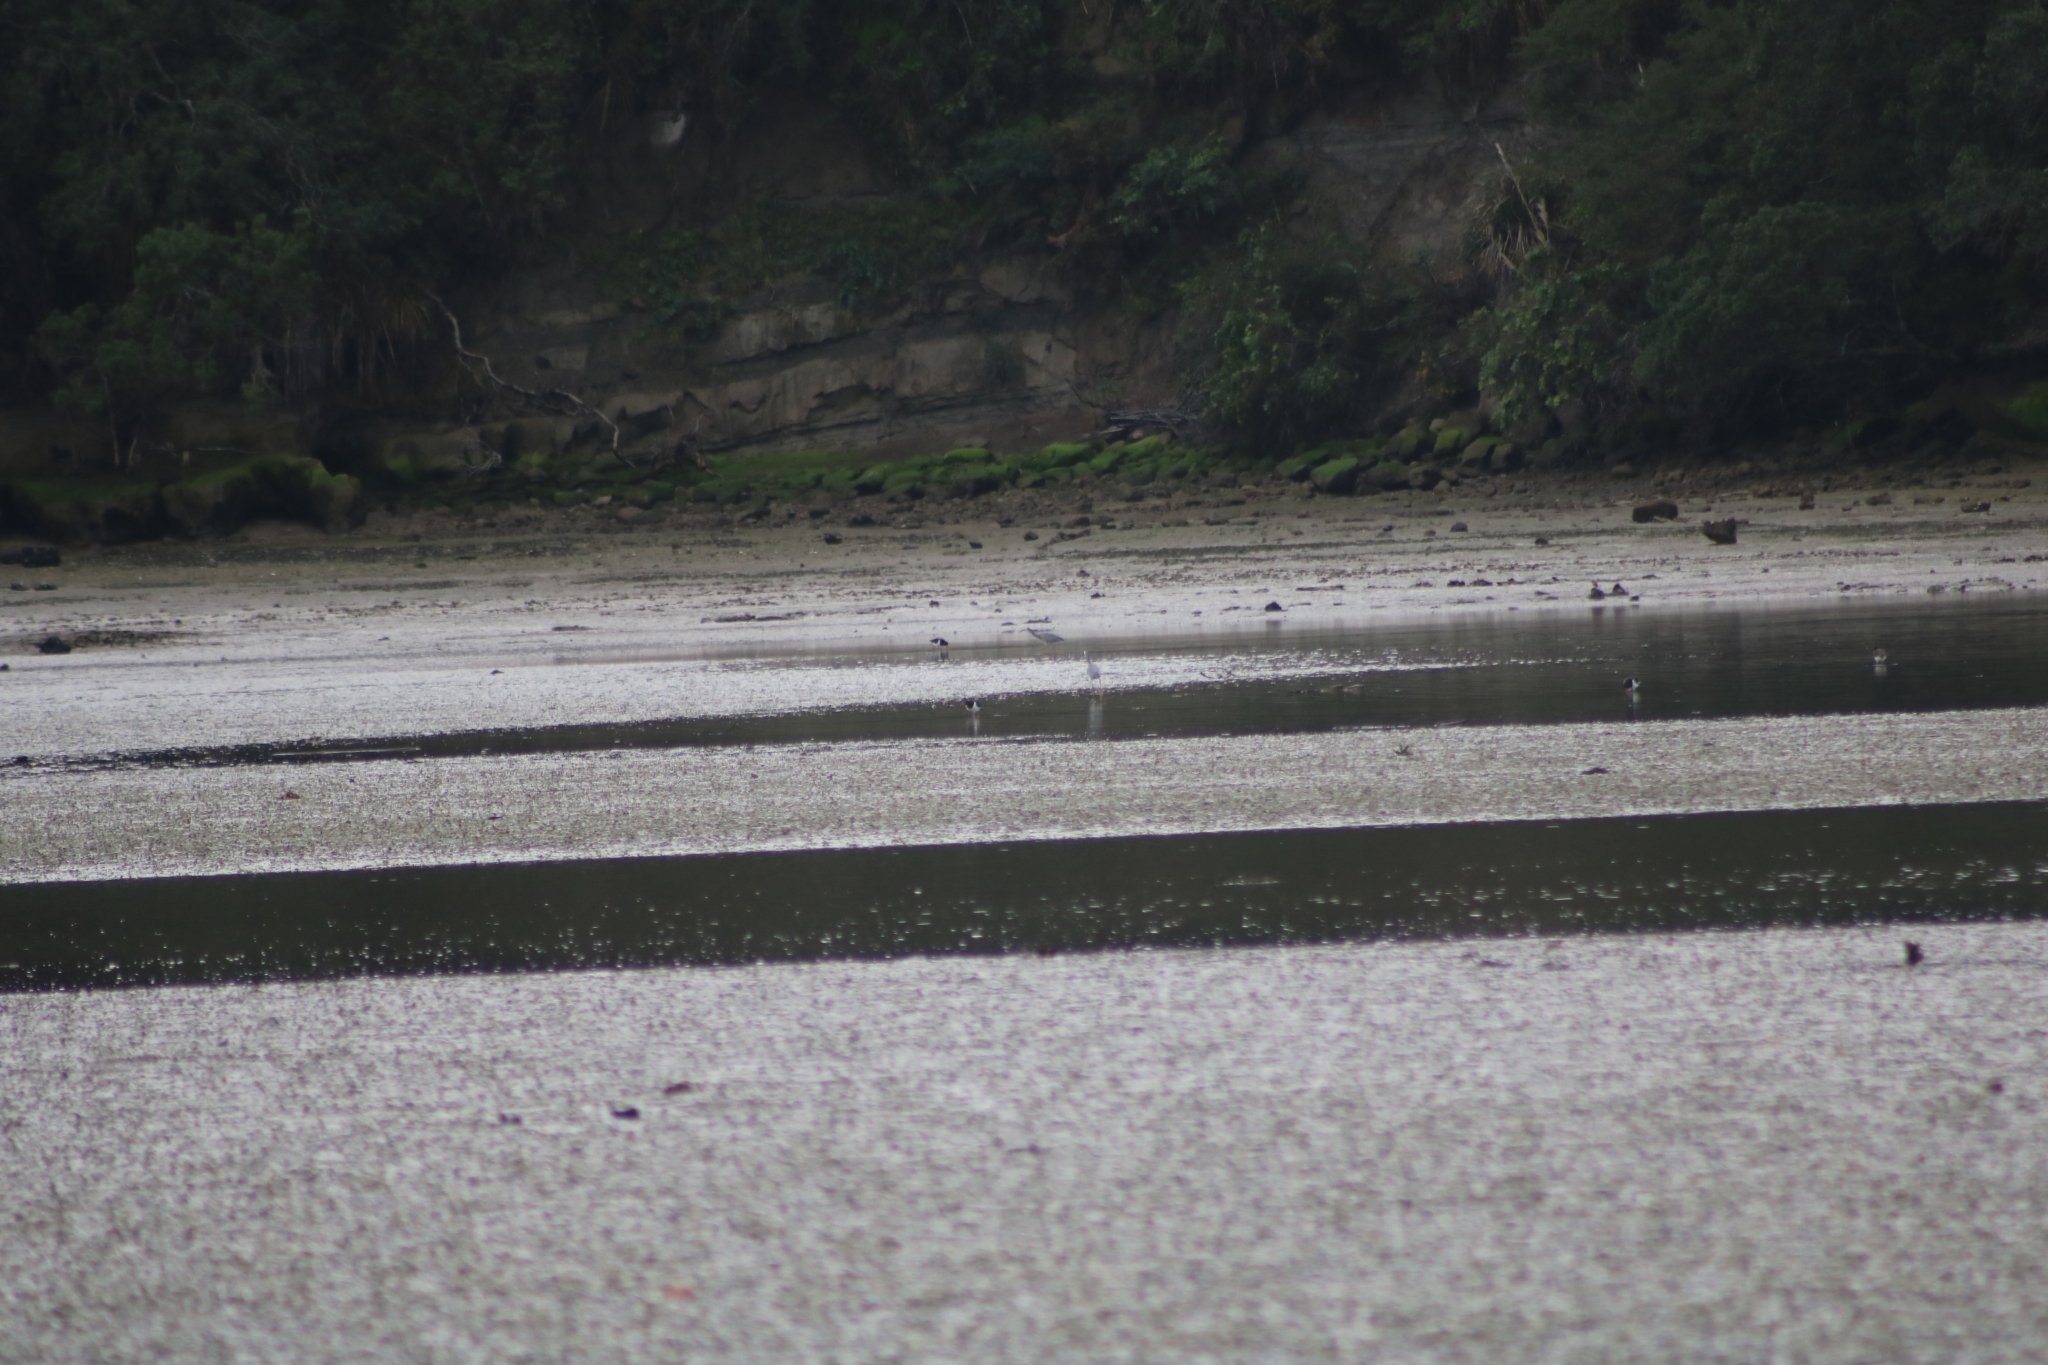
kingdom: Animalia
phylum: Chordata
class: Aves
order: Pelecaniformes
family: Ardeidae
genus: Egretta
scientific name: Egretta novaehollandiae
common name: White-faced heron
